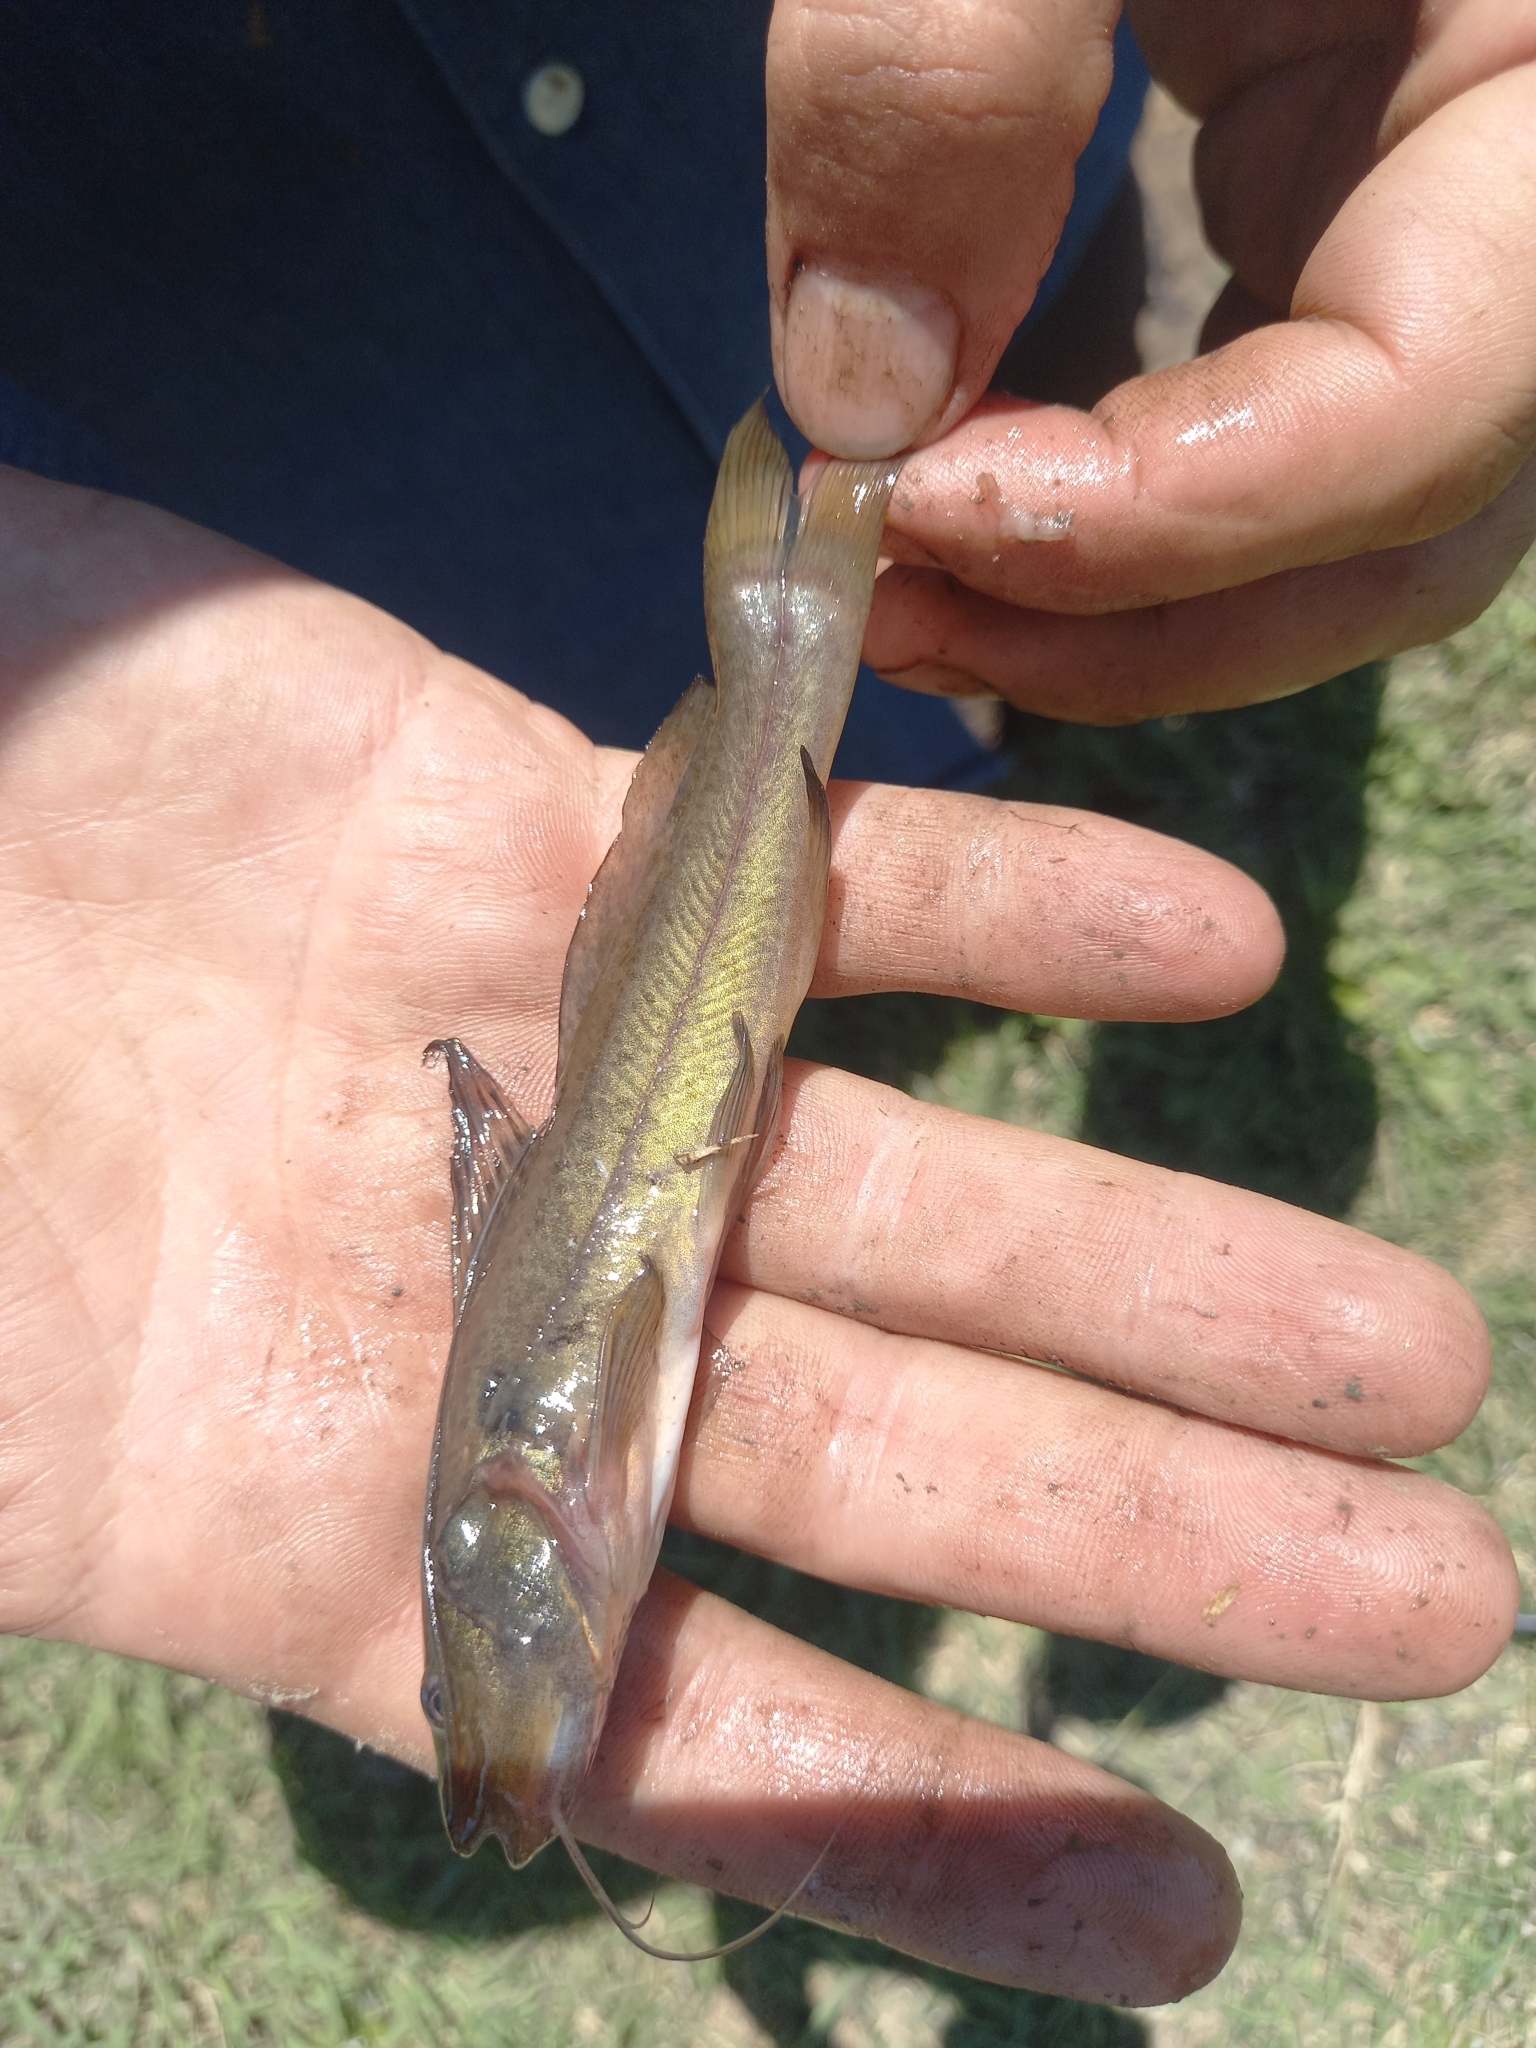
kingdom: Animalia
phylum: Chordata
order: Siluriformes
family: Heptapteridae
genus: Rhamdia
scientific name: Rhamdia quelen
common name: Catfish
